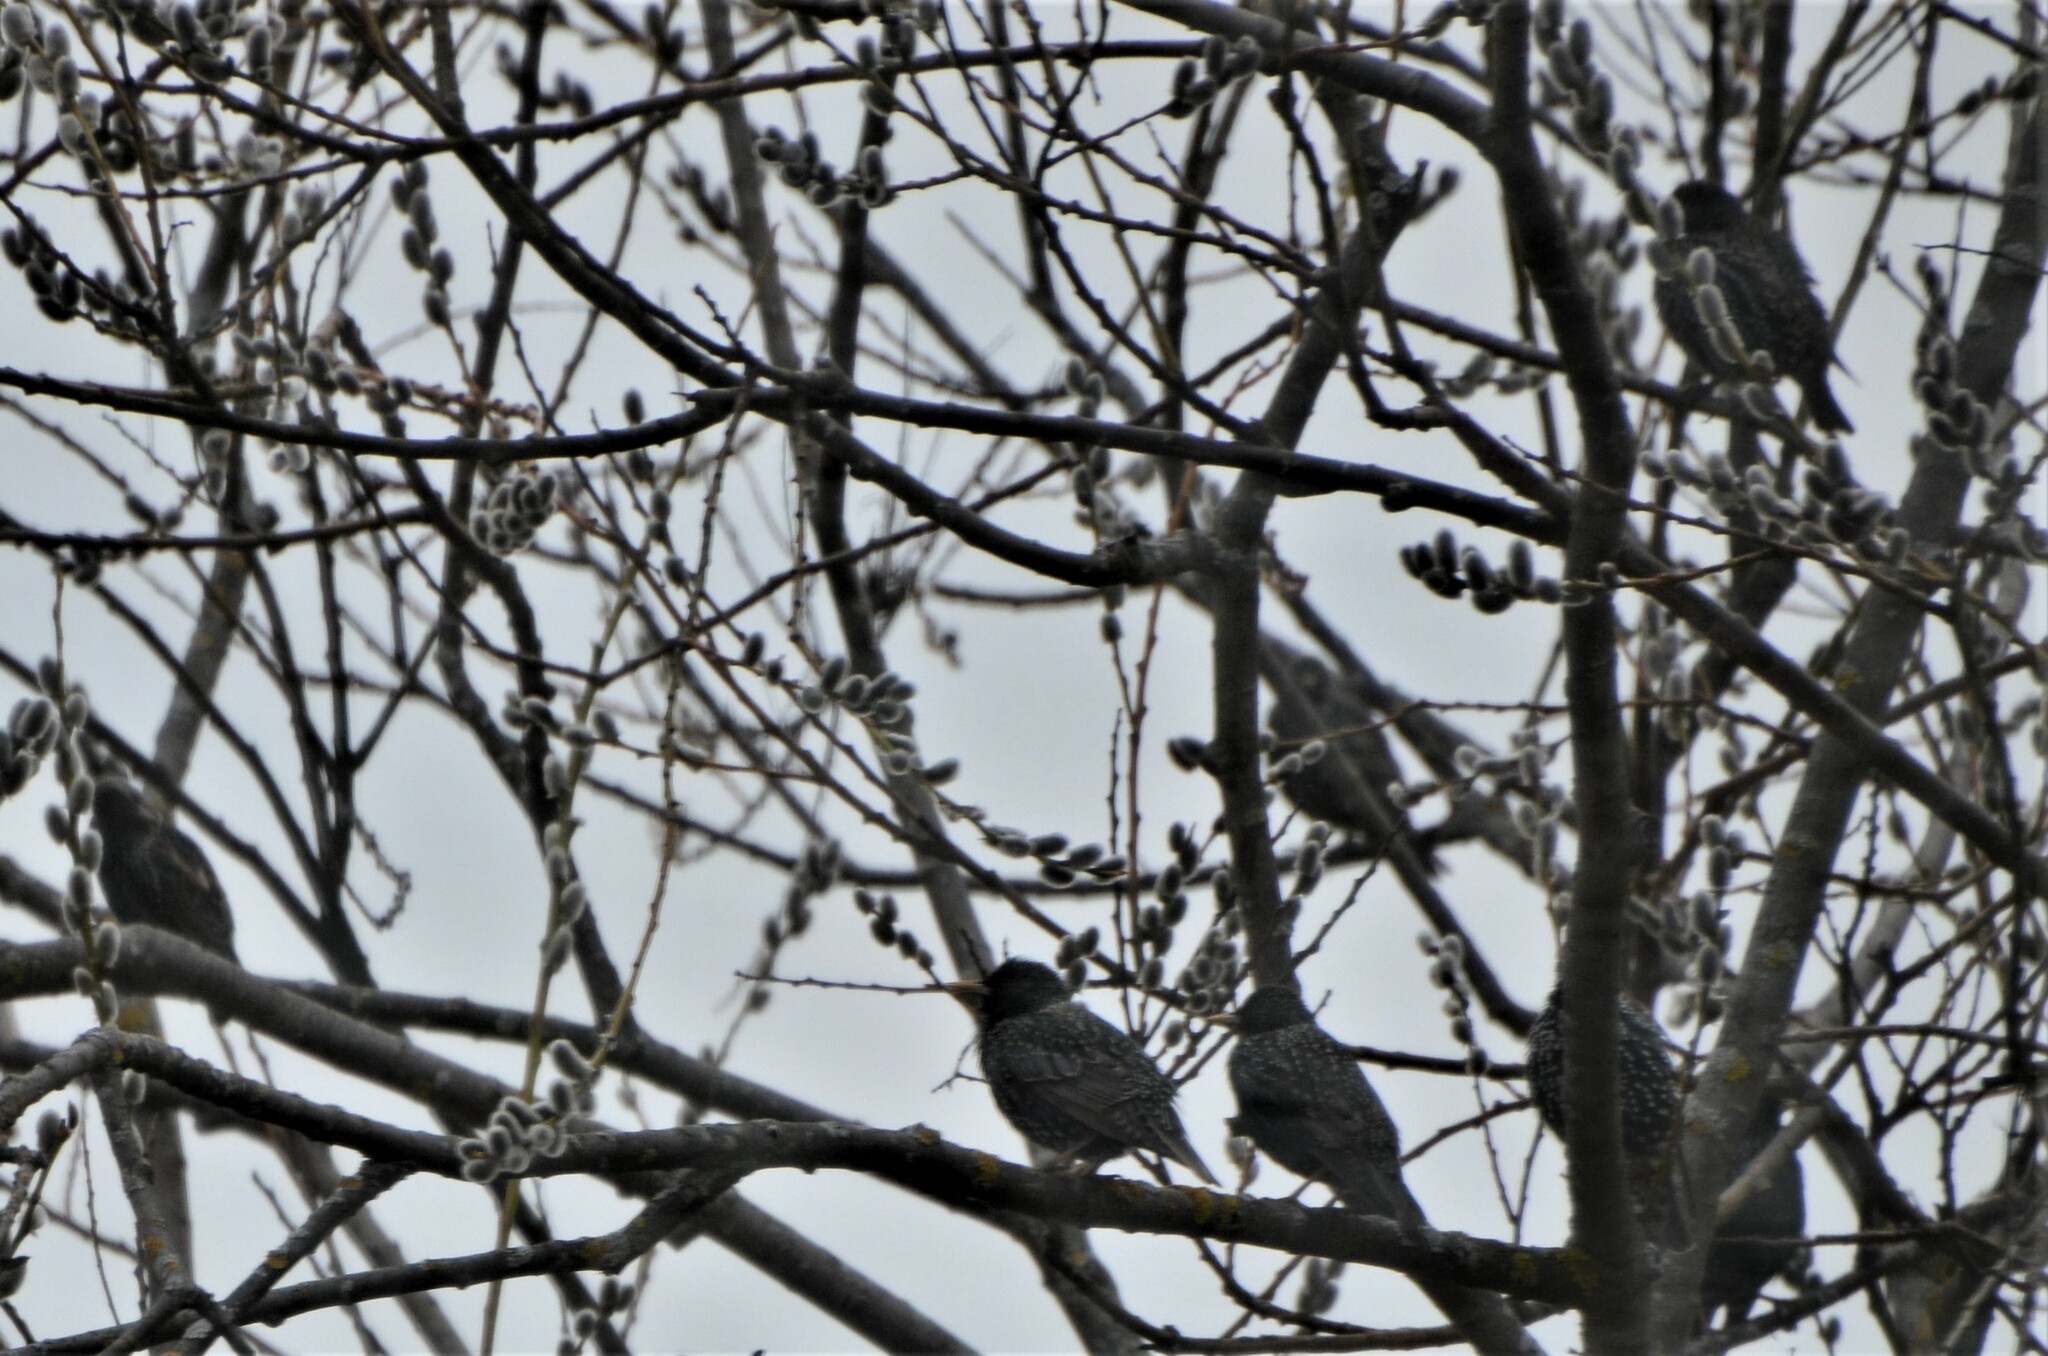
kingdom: Animalia
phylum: Chordata
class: Aves
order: Passeriformes
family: Sturnidae
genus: Sturnus
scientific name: Sturnus vulgaris
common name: Common starling
